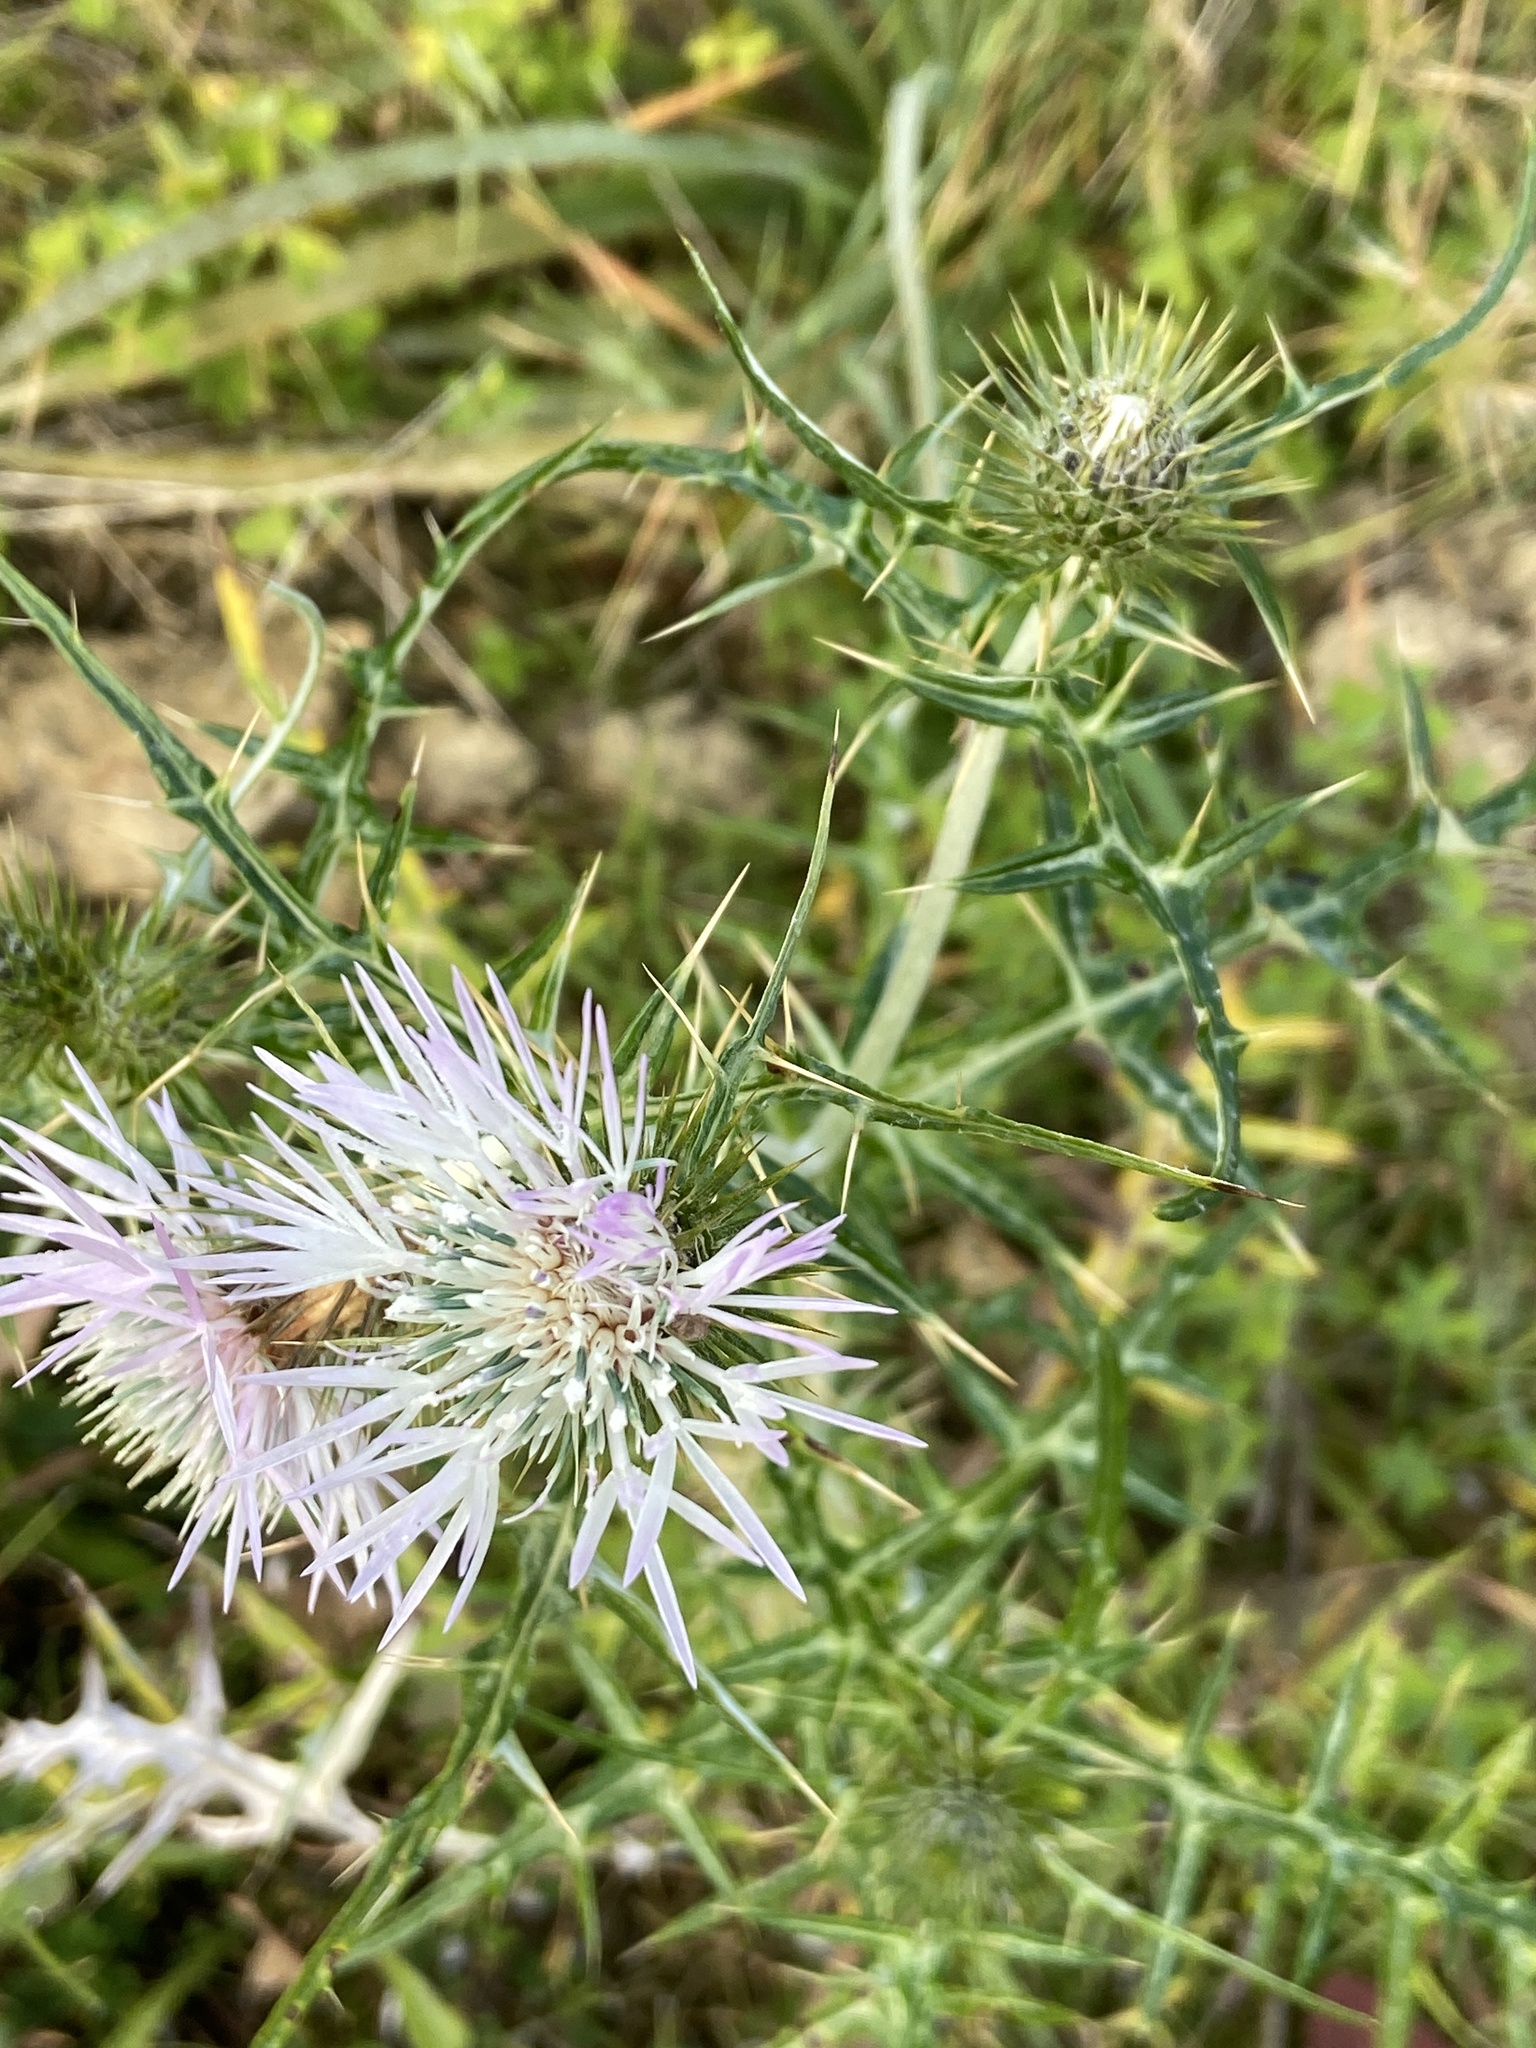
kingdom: Plantae
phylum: Tracheophyta
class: Magnoliopsida
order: Asterales
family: Asteraceae
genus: Galactites
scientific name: Galactites tomentosa
